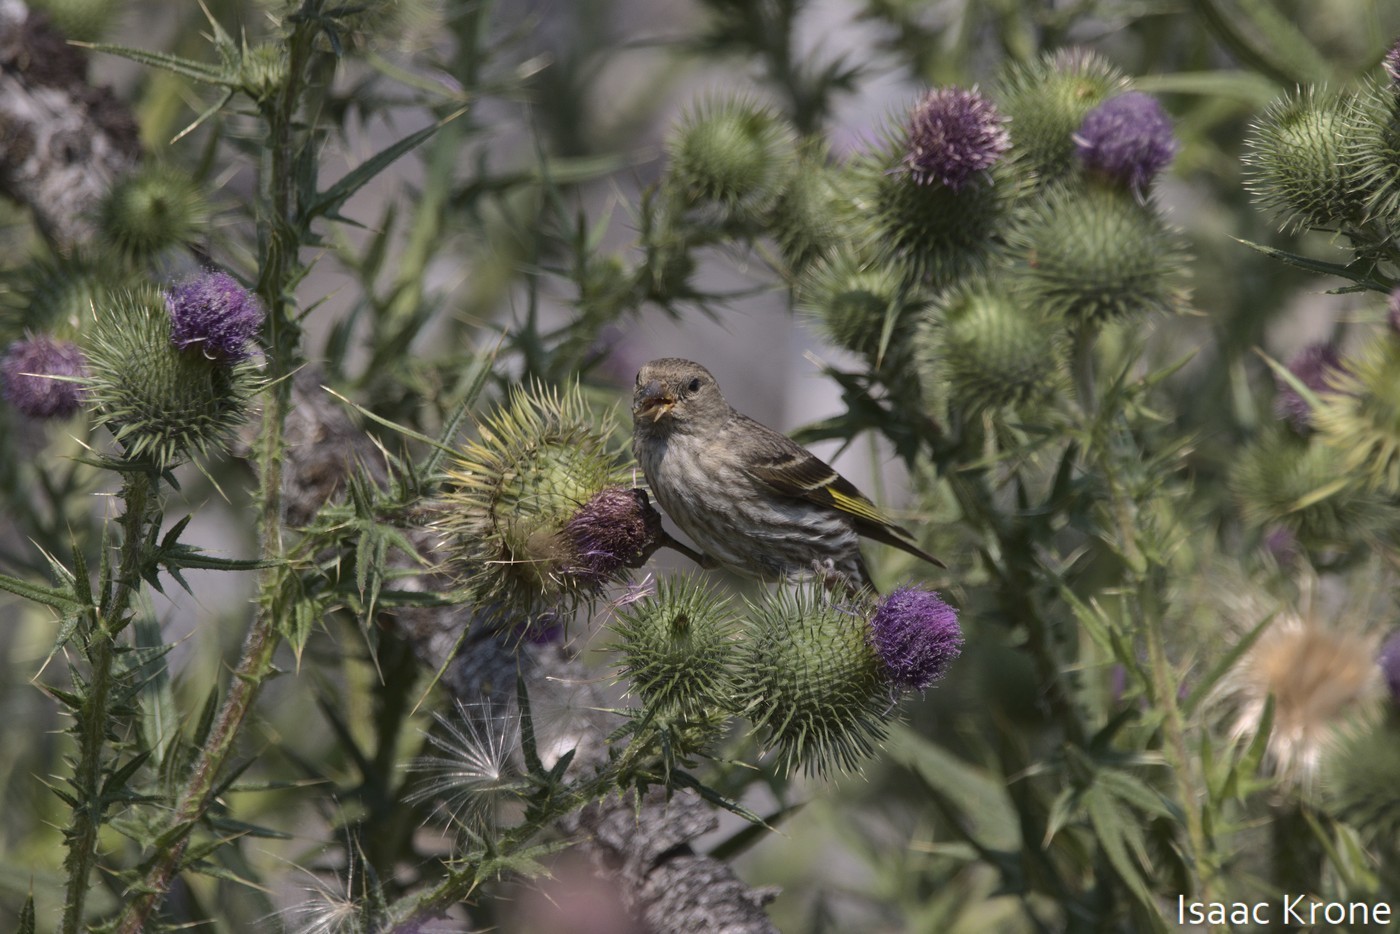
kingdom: Animalia
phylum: Chordata
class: Aves
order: Passeriformes
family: Fringillidae
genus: Spinus
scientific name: Spinus pinus
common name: Pine siskin
